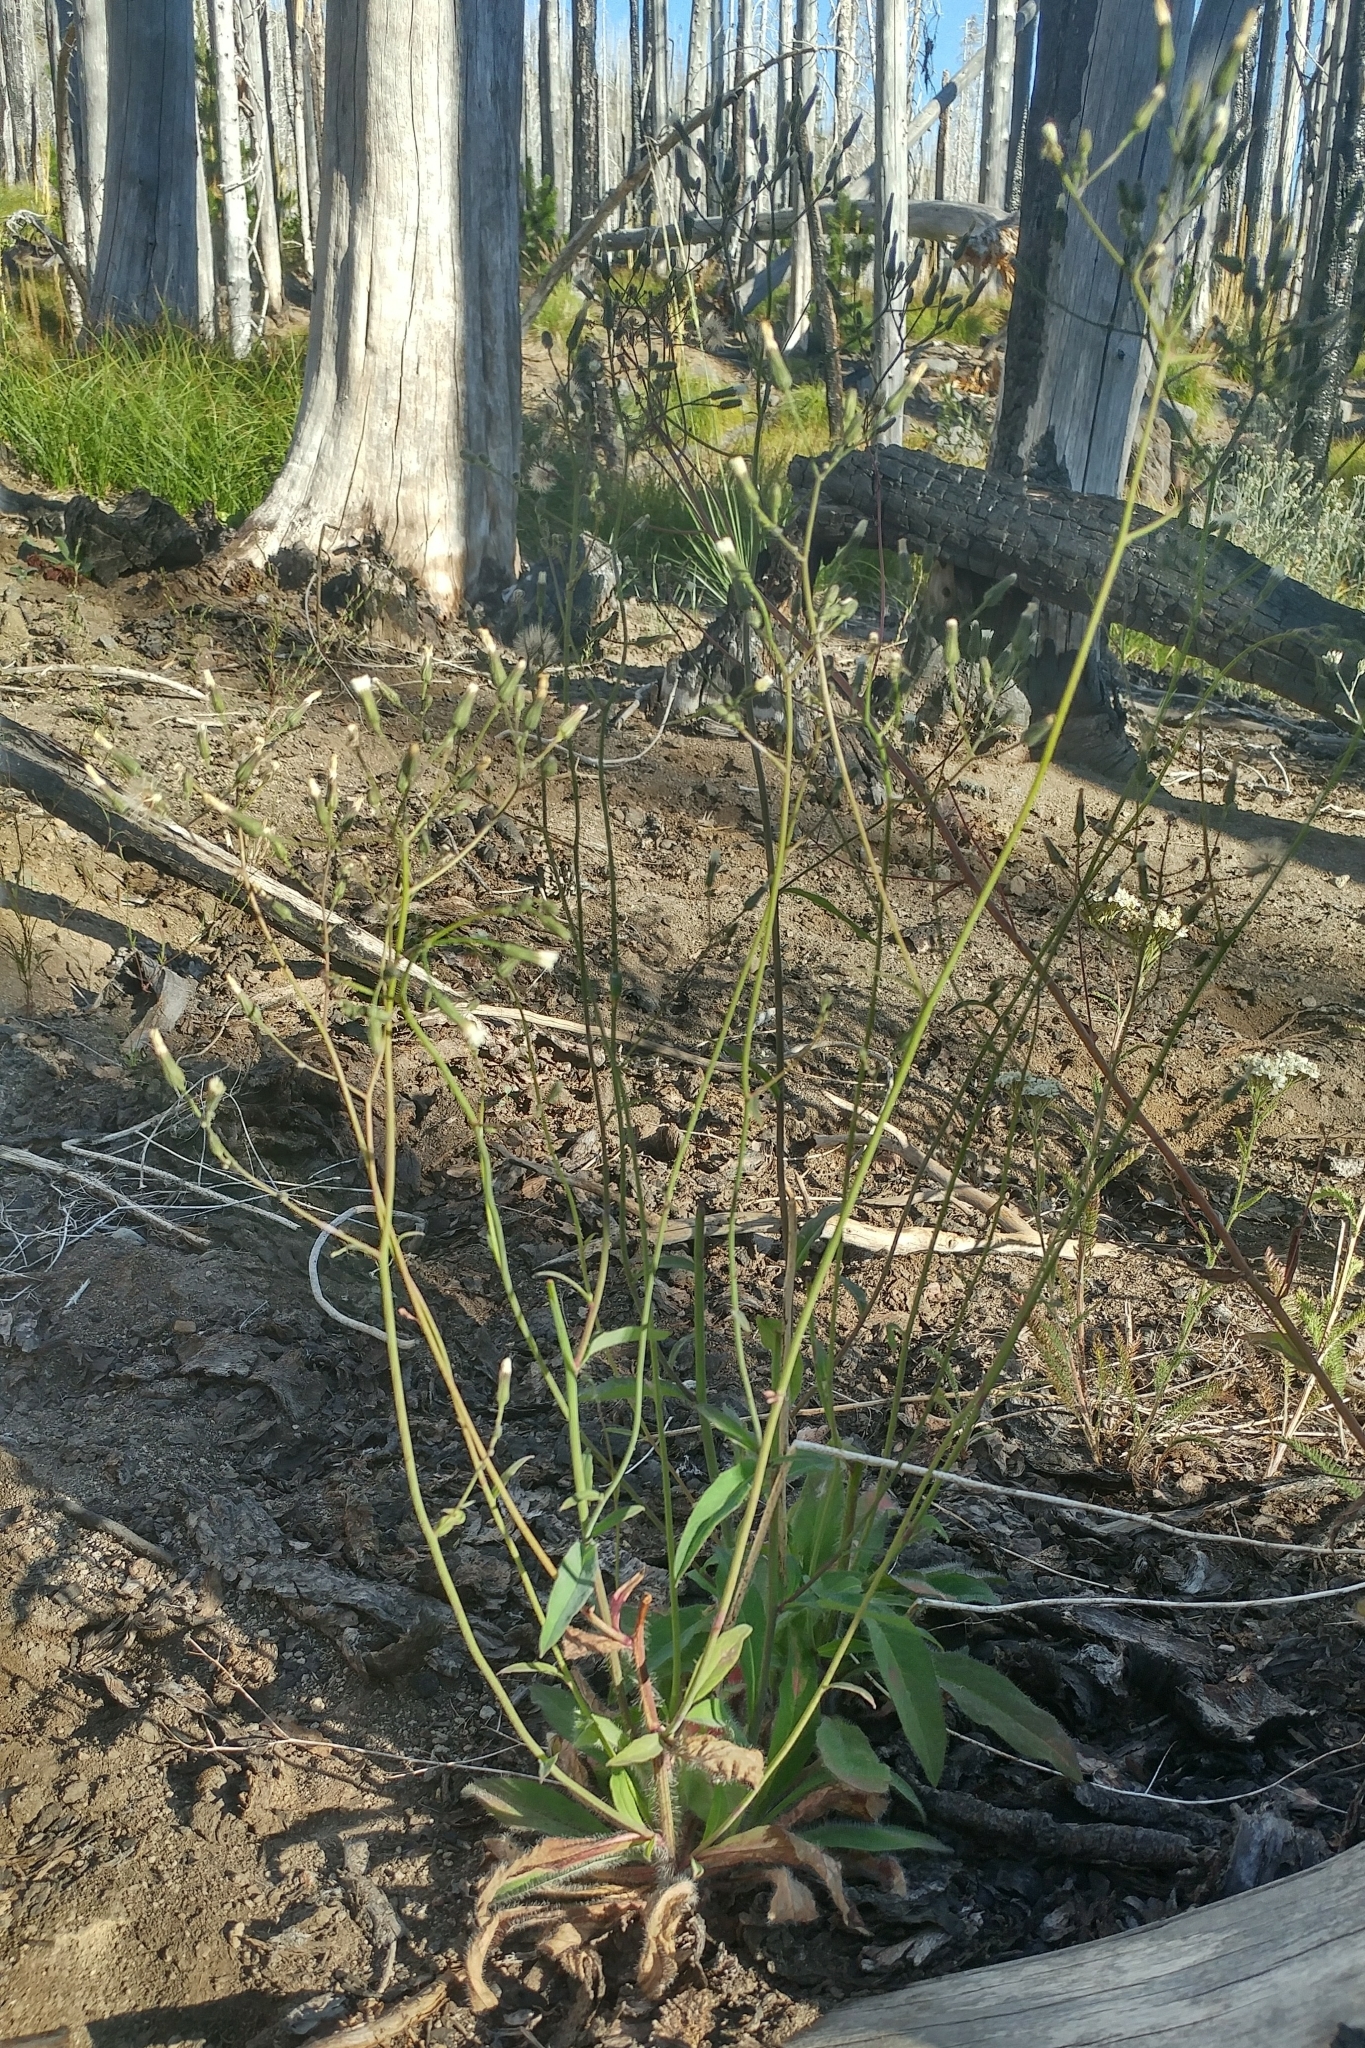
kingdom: Plantae
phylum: Tracheophyta
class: Magnoliopsida
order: Asterales
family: Asteraceae
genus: Hieracium
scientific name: Hieracium albiflorum
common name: White hawkweed
